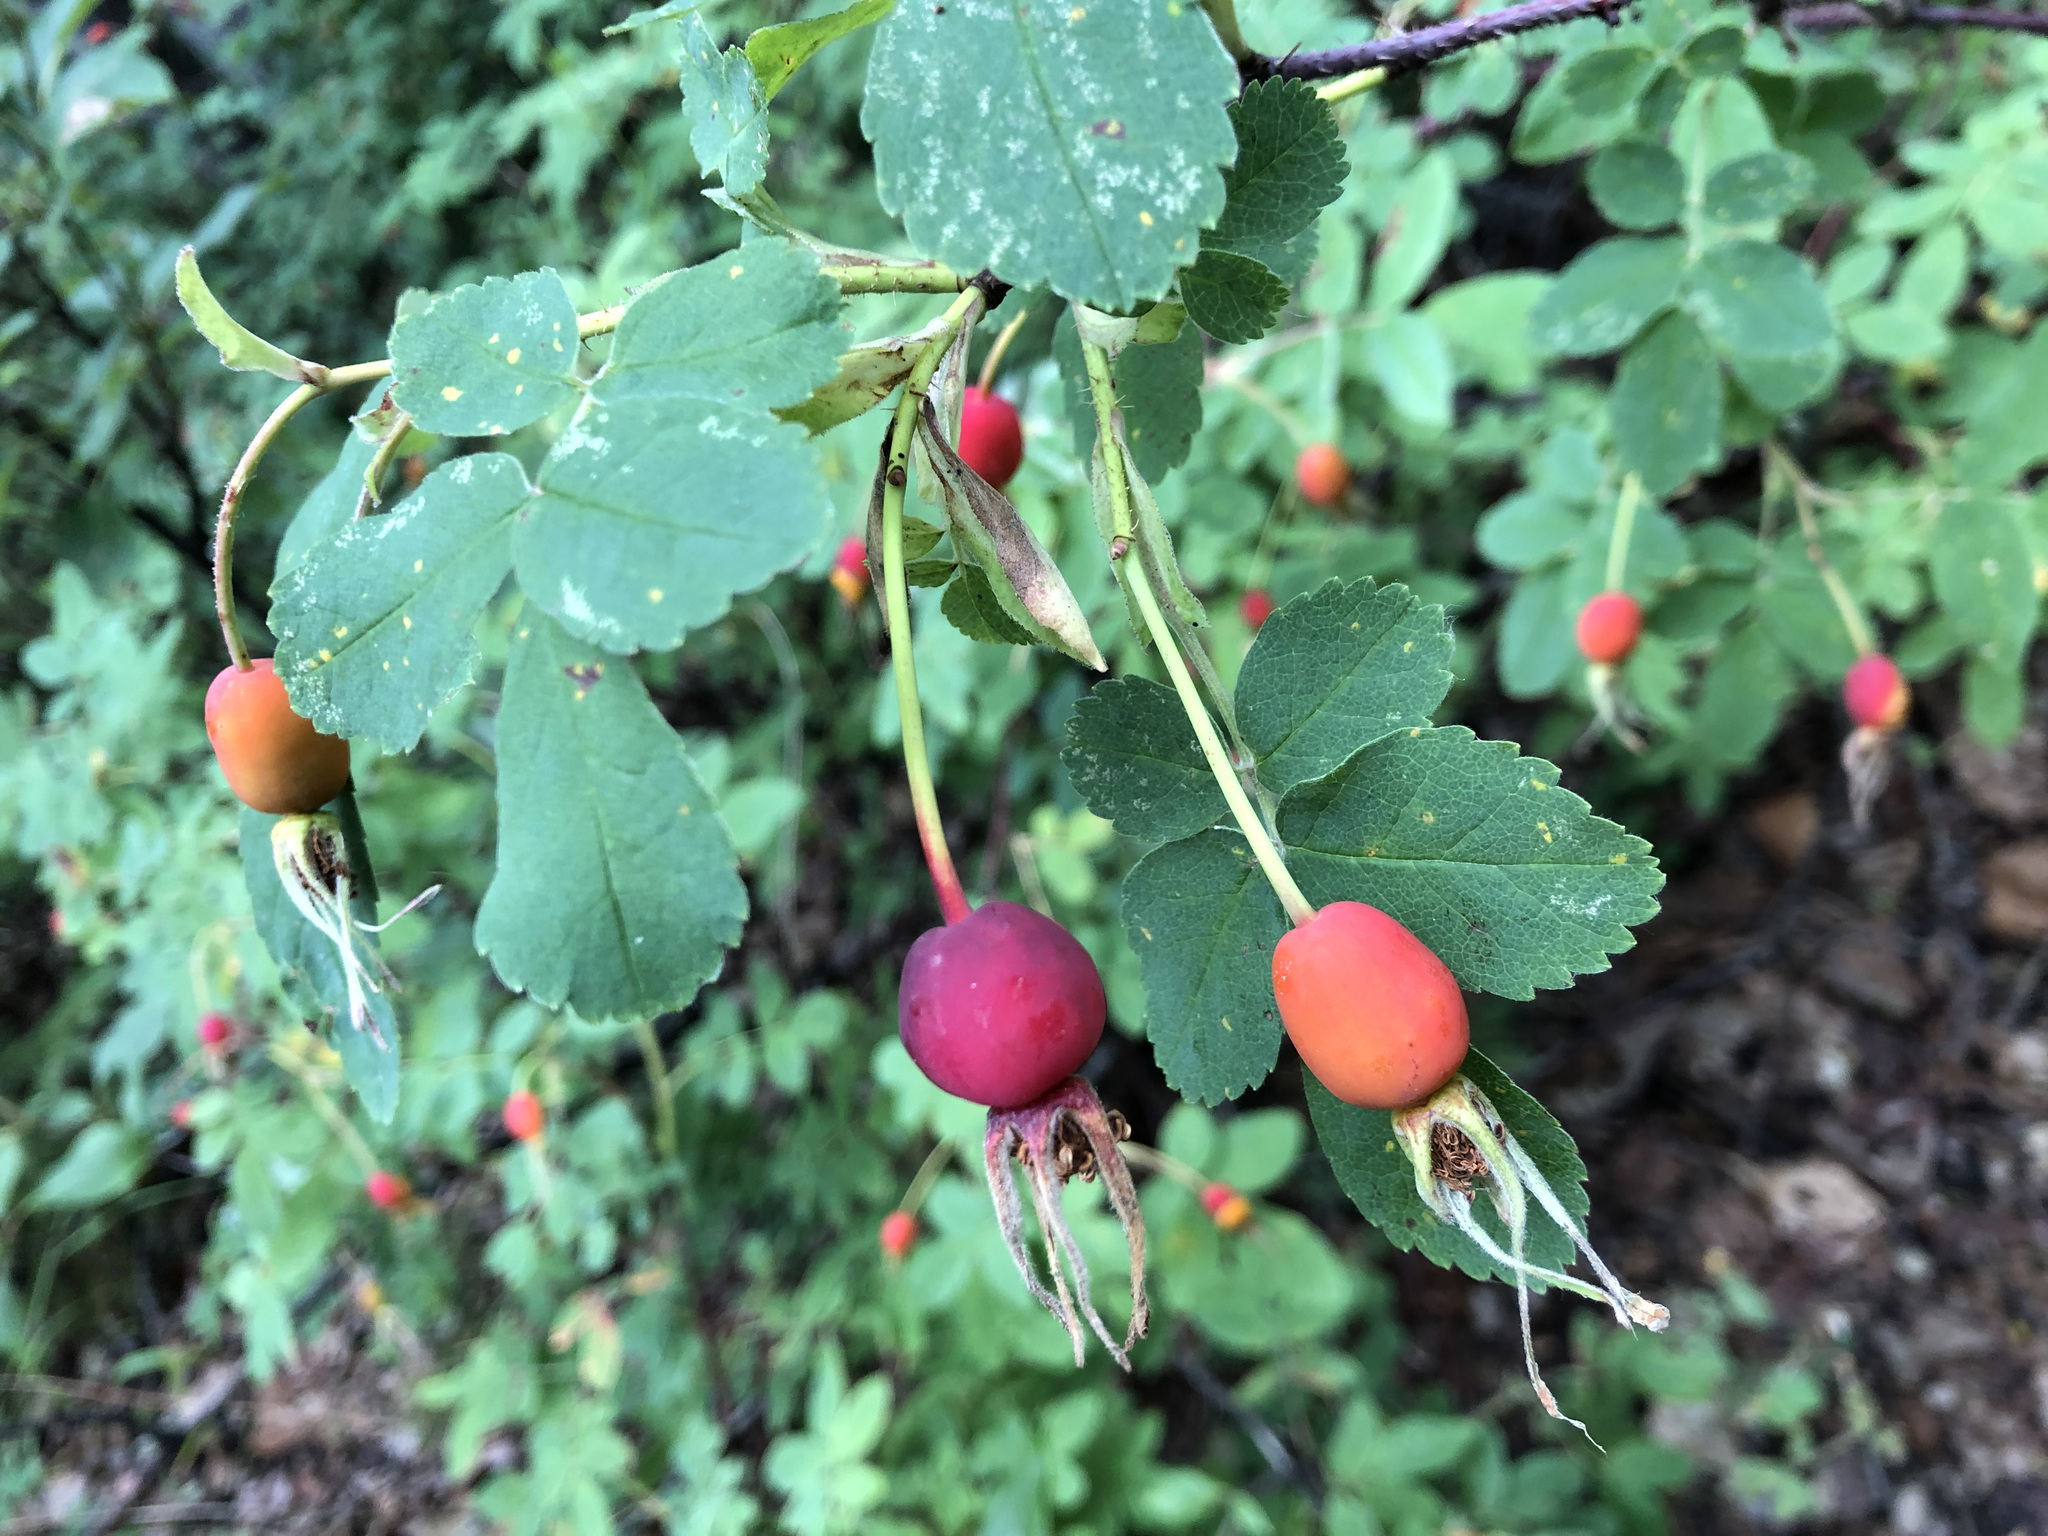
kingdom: Plantae
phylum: Tracheophyta
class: Magnoliopsida
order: Rosales
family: Rosaceae
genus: Rosa
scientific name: Rosa acicularis
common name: Prickly rose
